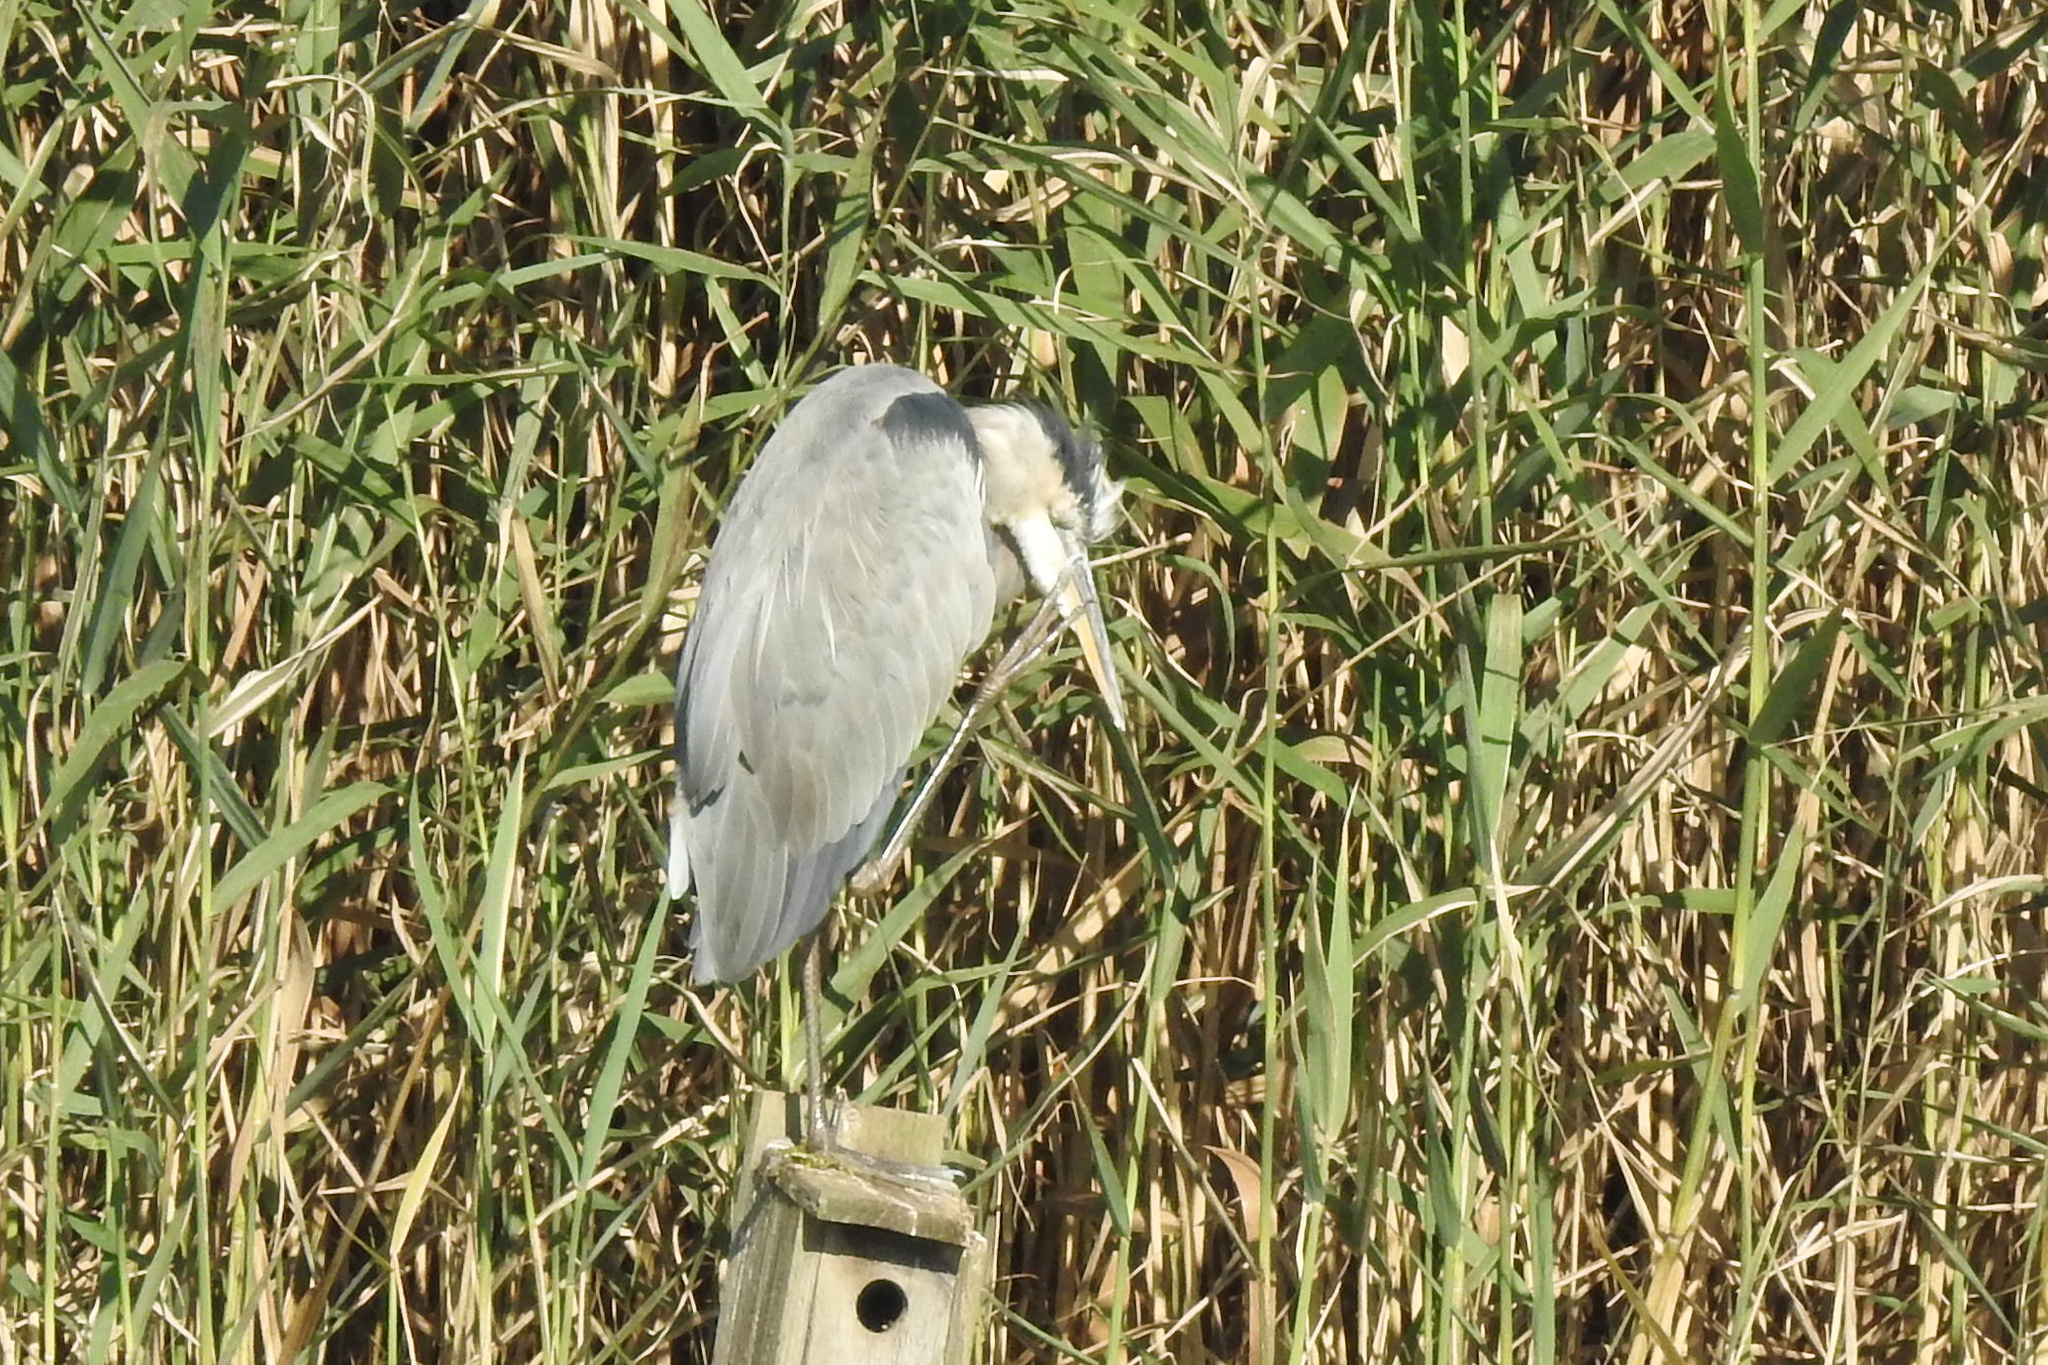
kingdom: Animalia
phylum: Chordata
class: Aves
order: Pelecaniformes
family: Ardeidae
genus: Ardea
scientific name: Ardea herodias
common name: Great blue heron
